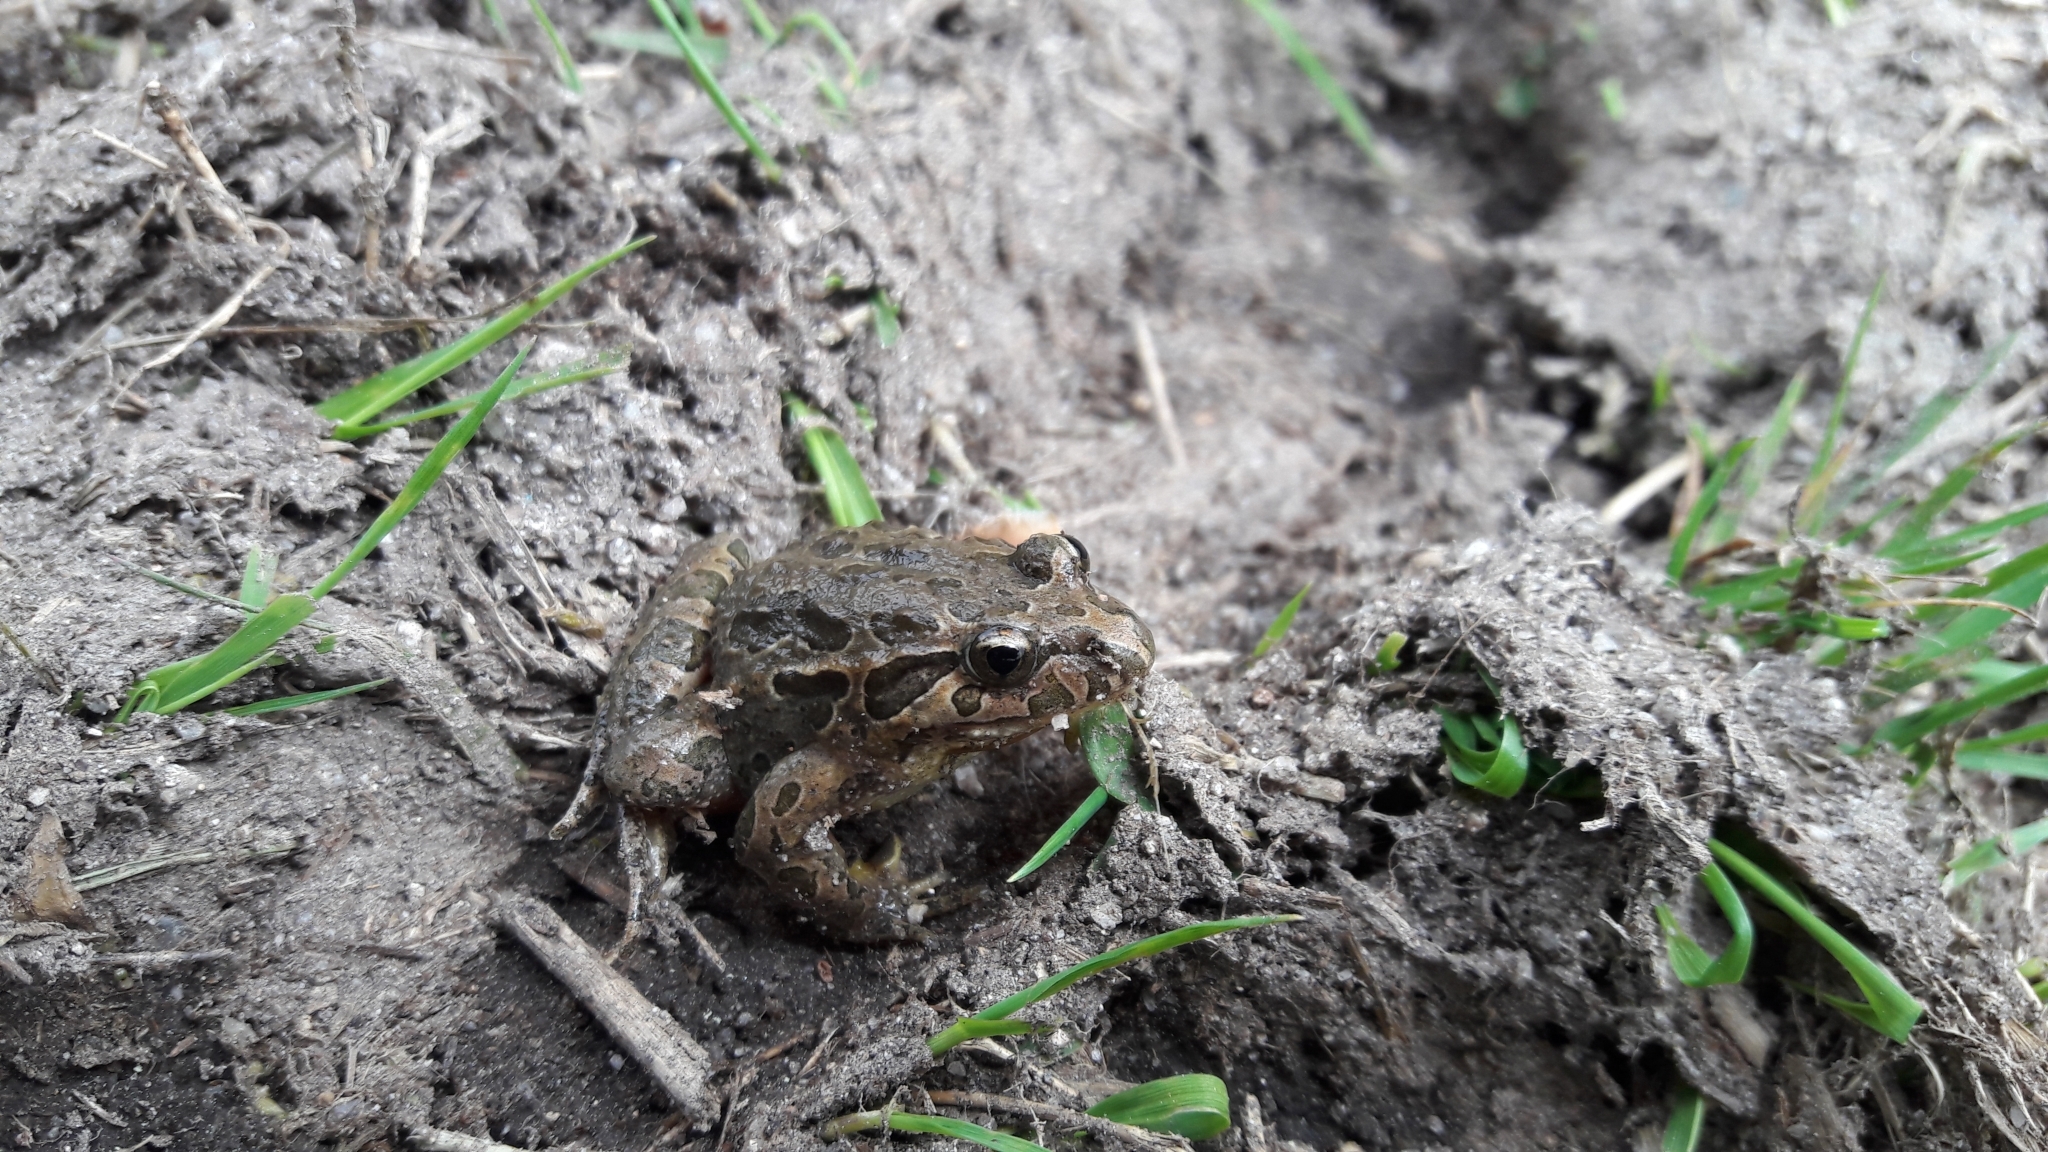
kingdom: Animalia
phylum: Chordata
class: Amphibia
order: Anura
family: Alytidae
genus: Discoglossus
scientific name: Discoglossus galganoi
